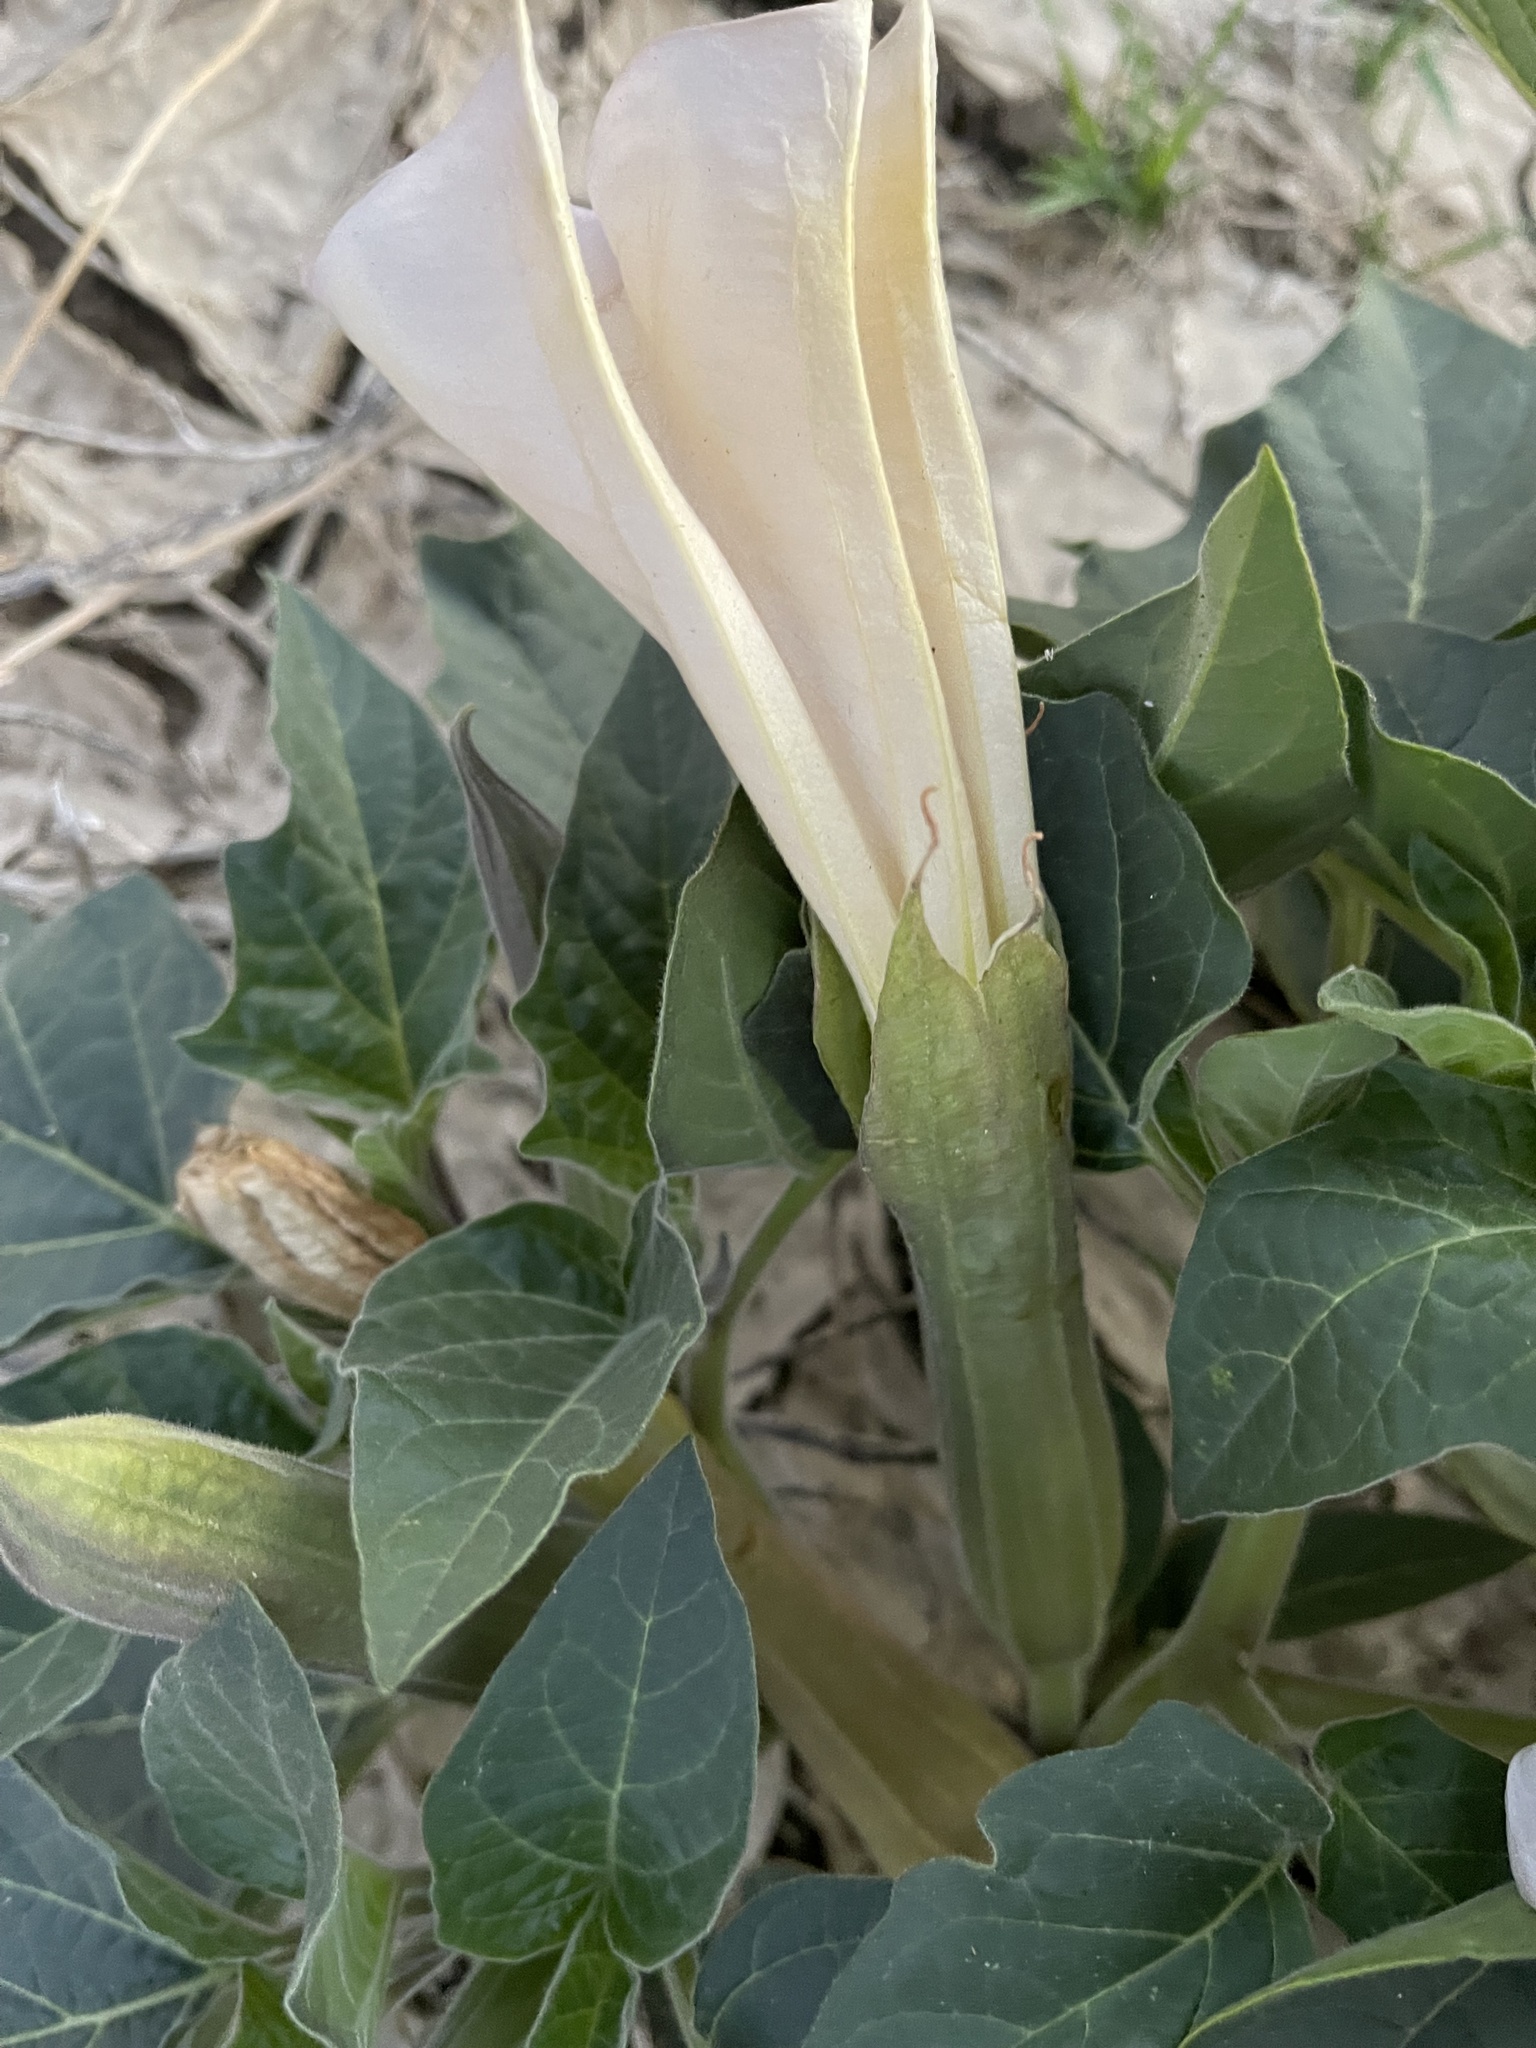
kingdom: Plantae
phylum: Tracheophyta
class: Magnoliopsida
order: Solanales
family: Solanaceae
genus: Datura
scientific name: Datura wrightii
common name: Sacred thorn-apple
